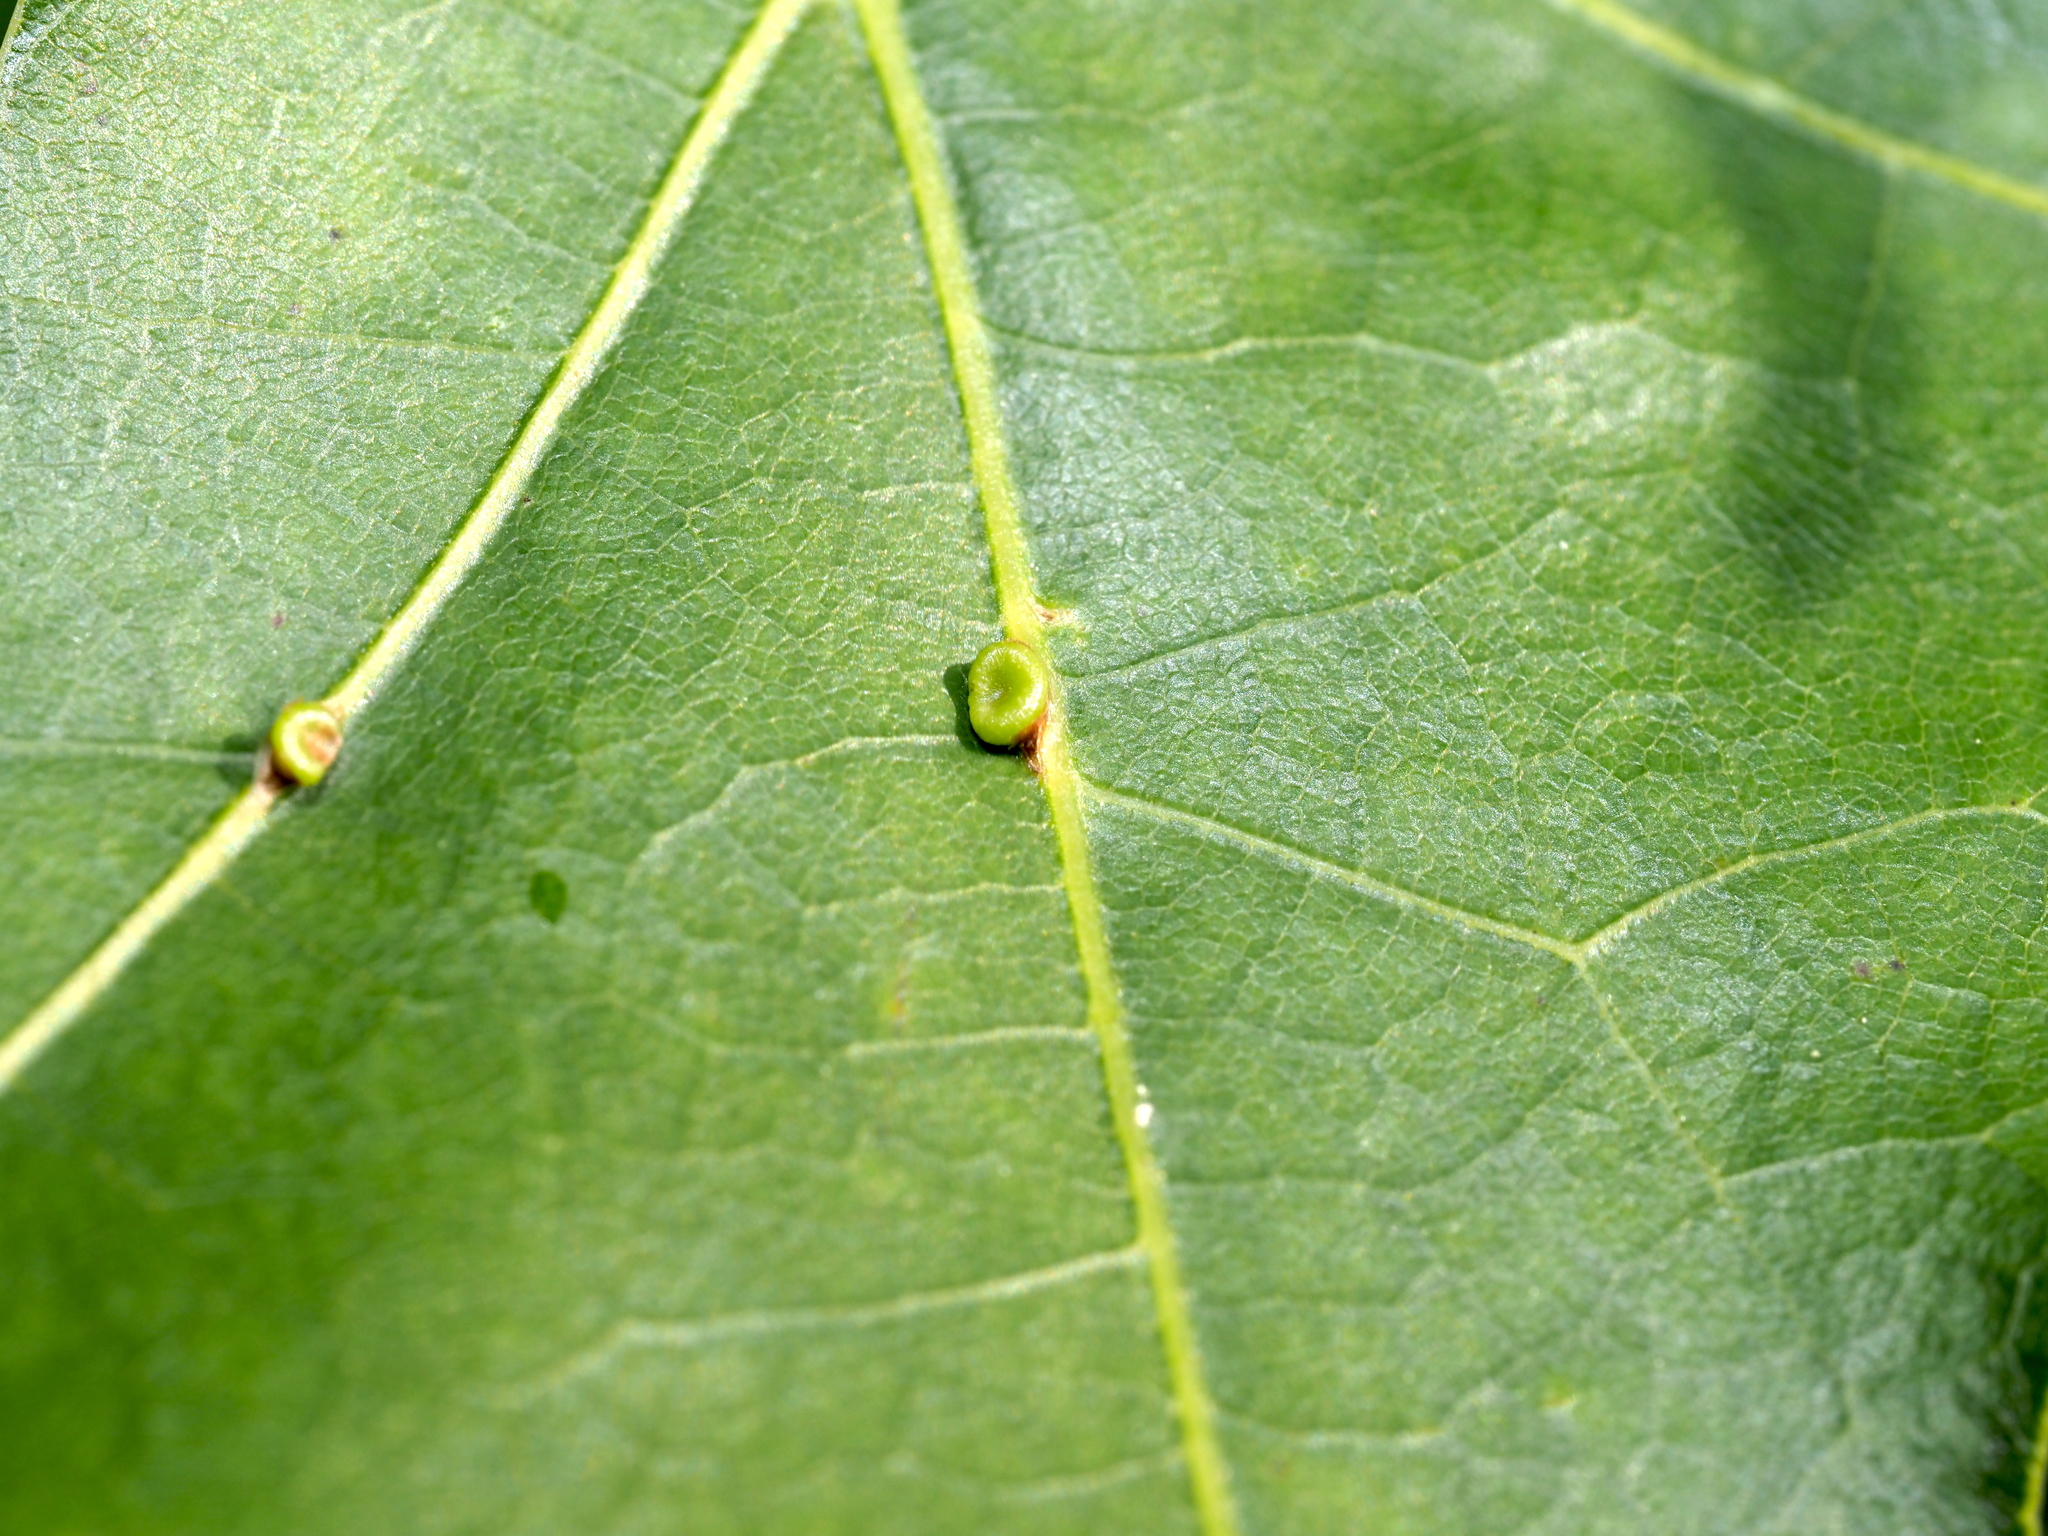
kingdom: Animalia
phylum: Arthropoda
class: Insecta
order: Hymenoptera
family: Cynipidae
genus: Kokkocynips
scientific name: Kokkocynips rileyi
